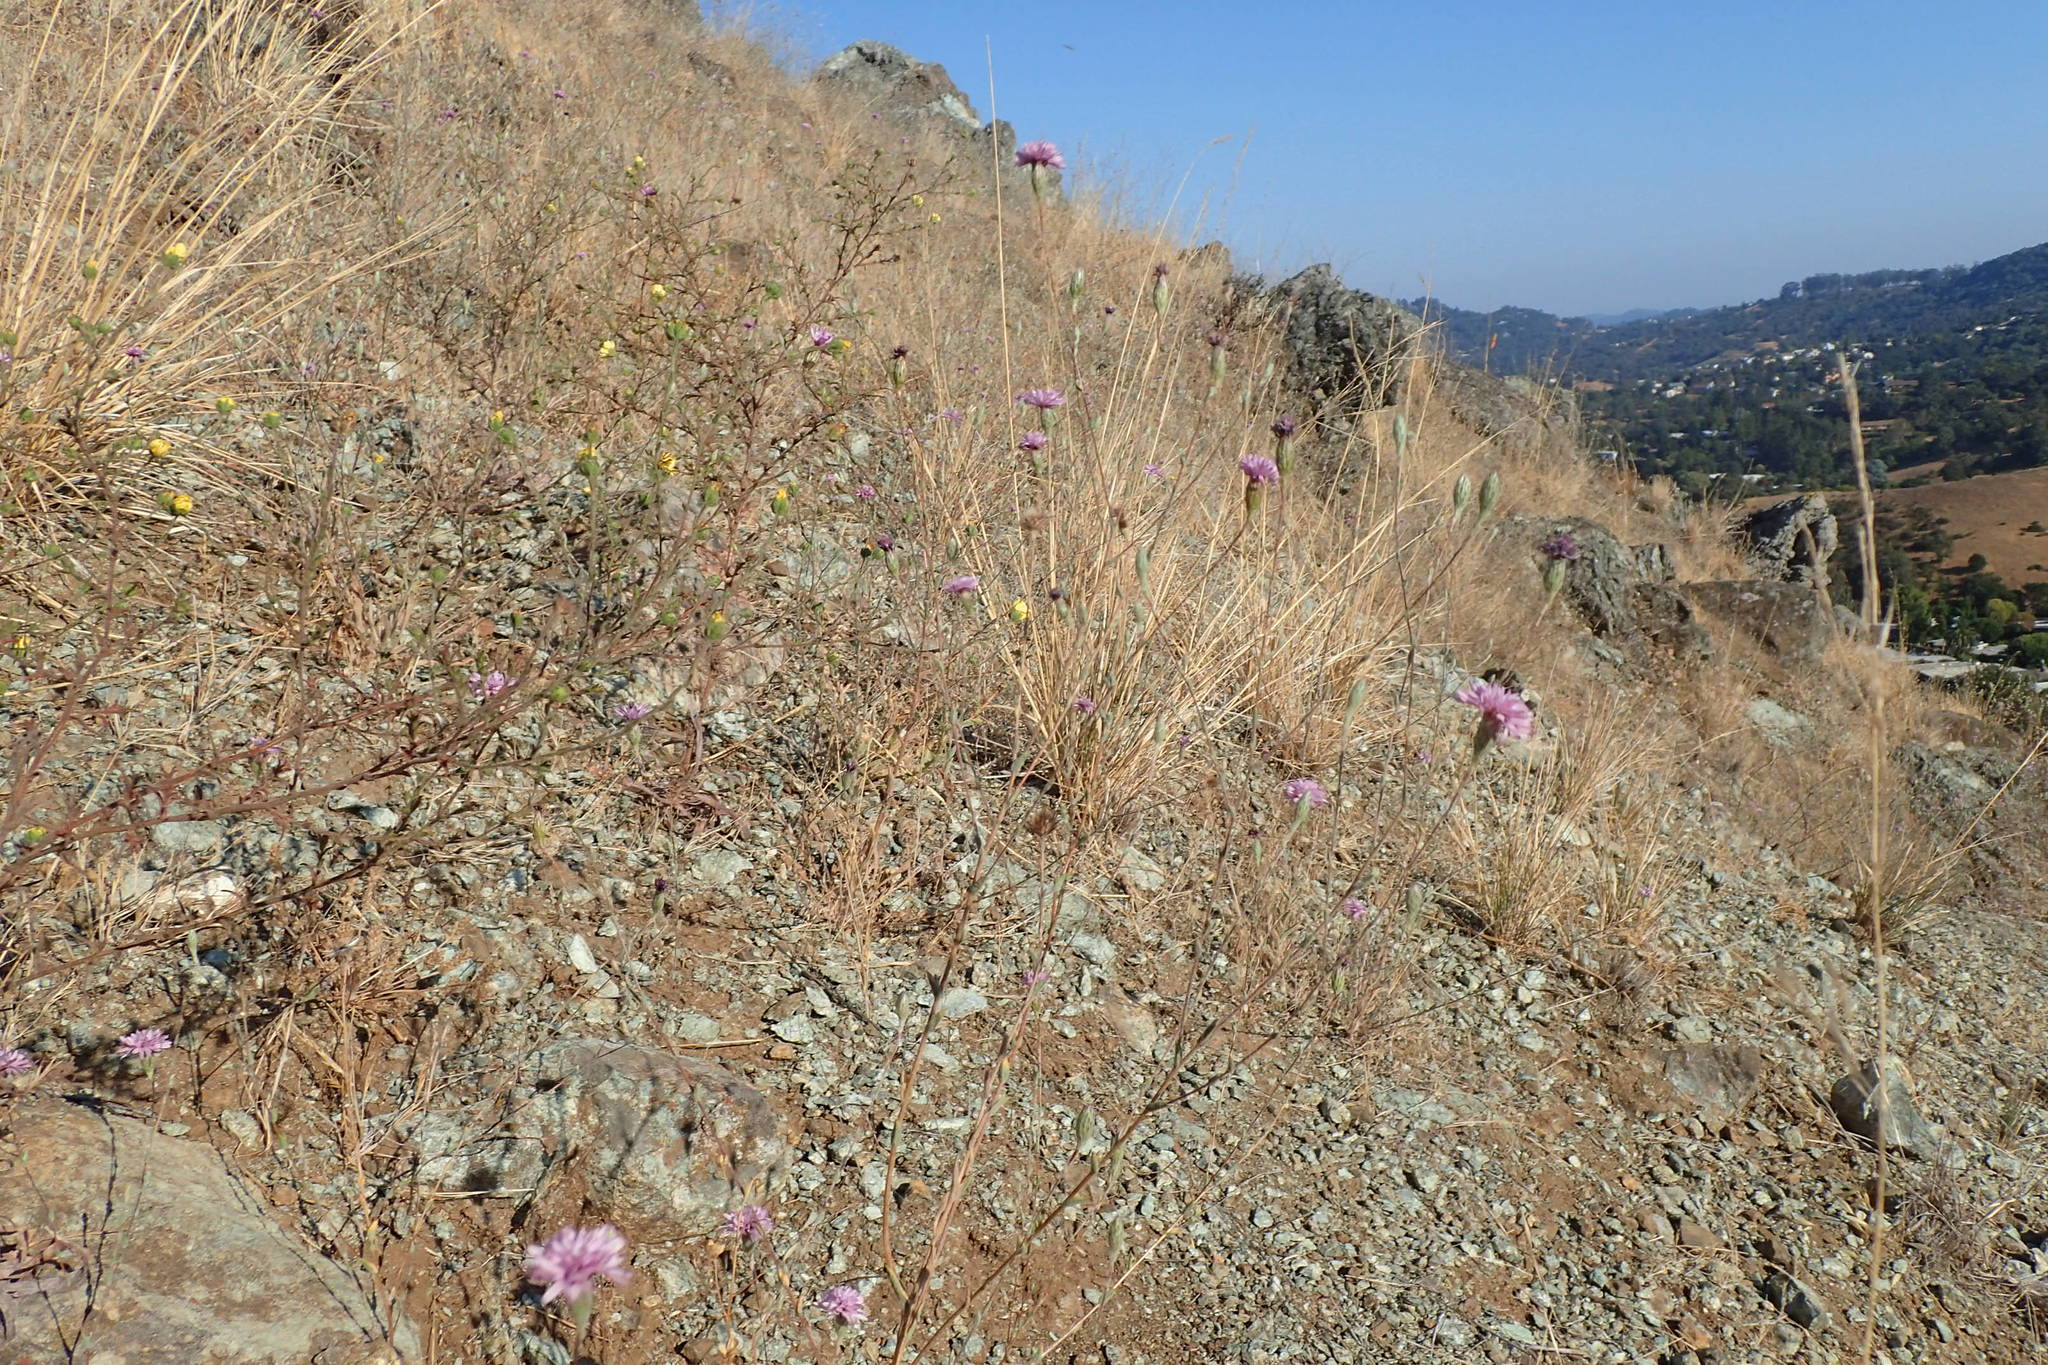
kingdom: Plantae
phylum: Tracheophyta
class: Magnoliopsida
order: Asterales
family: Asteraceae
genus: Lessingia
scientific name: Lessingia hololeuca
